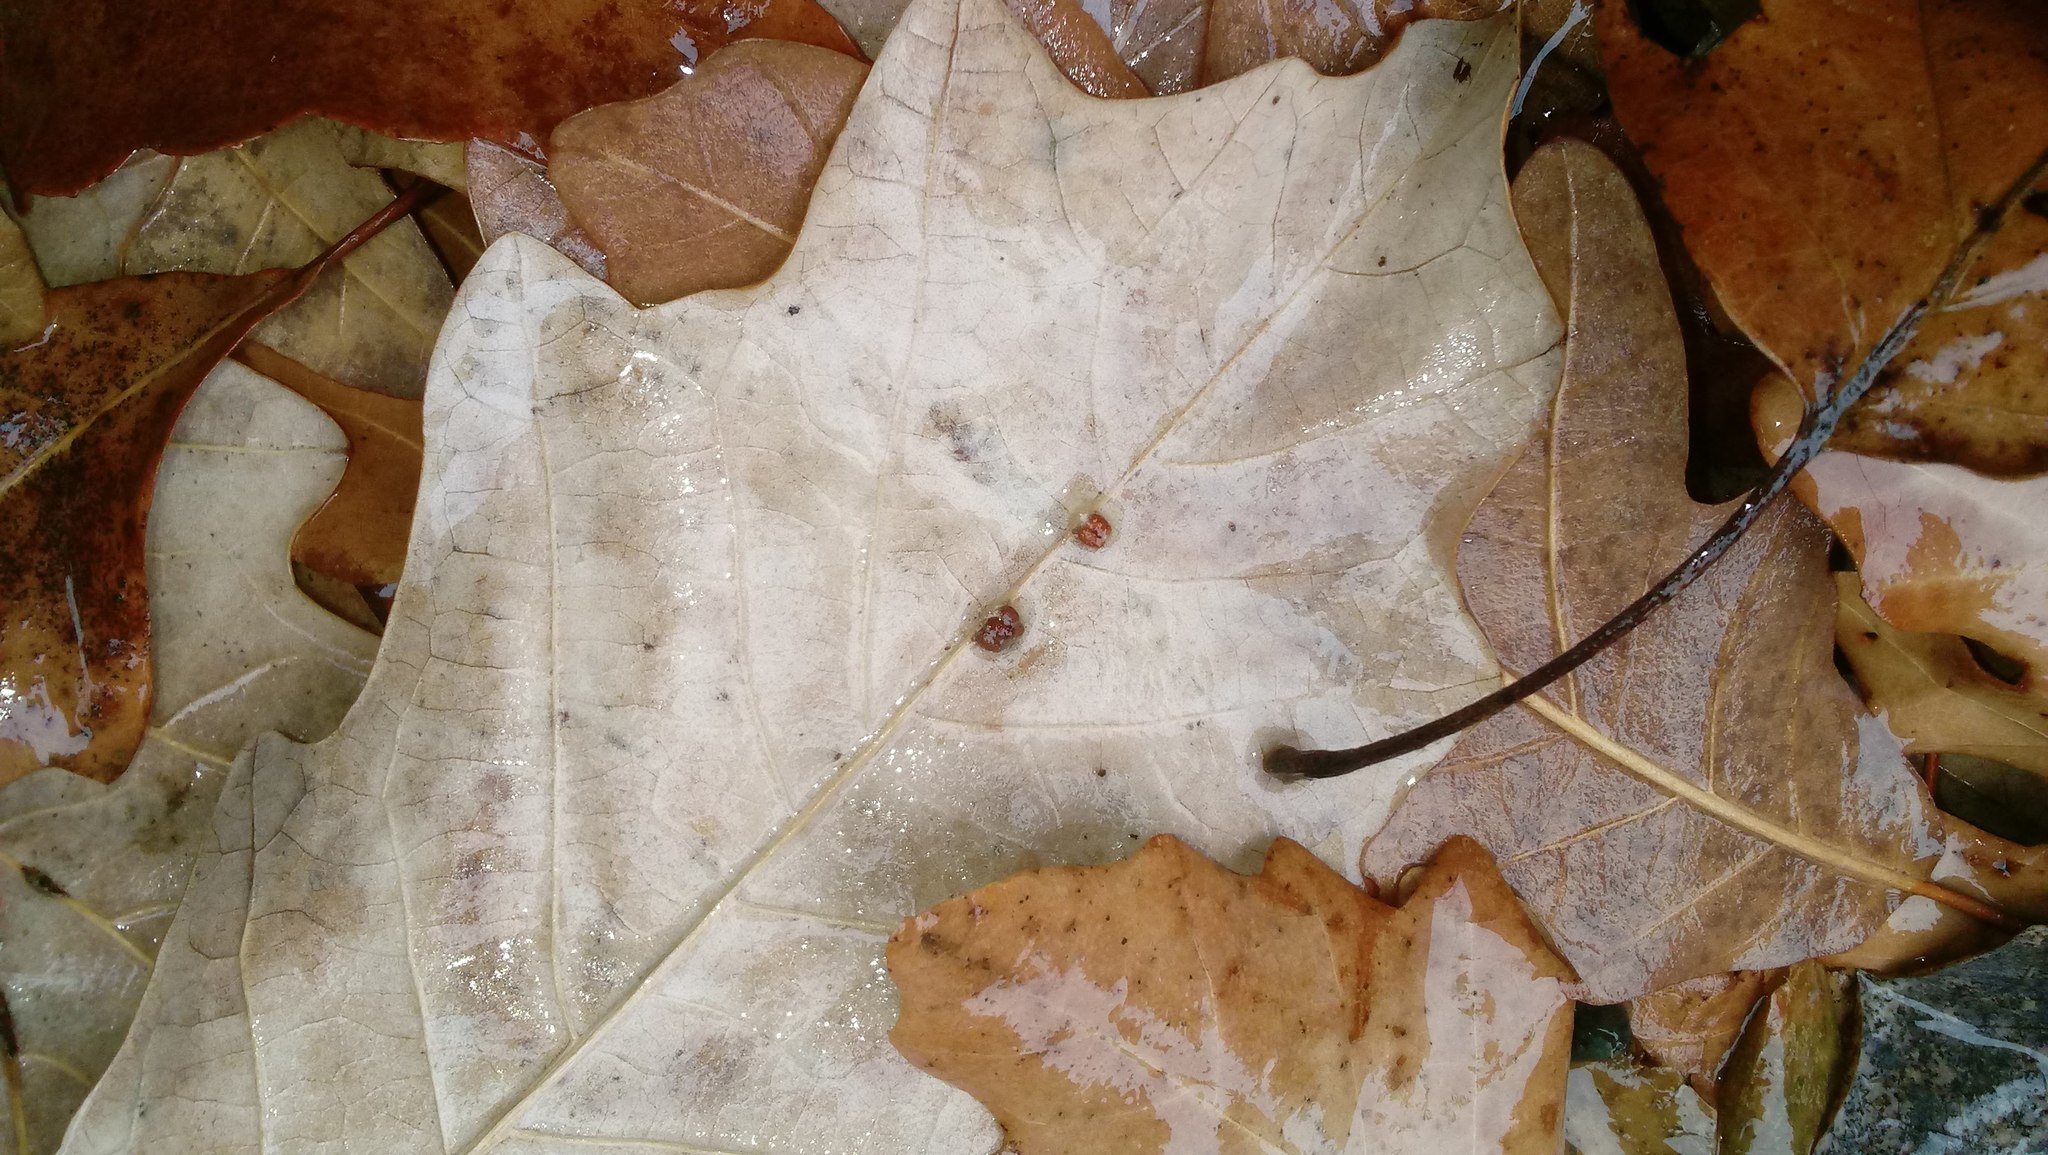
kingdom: Animalia
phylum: Arthropoda
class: Insecta
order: Hymenoptera
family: Cynipidae
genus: Andricus
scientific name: Andricus Druon ignotum
